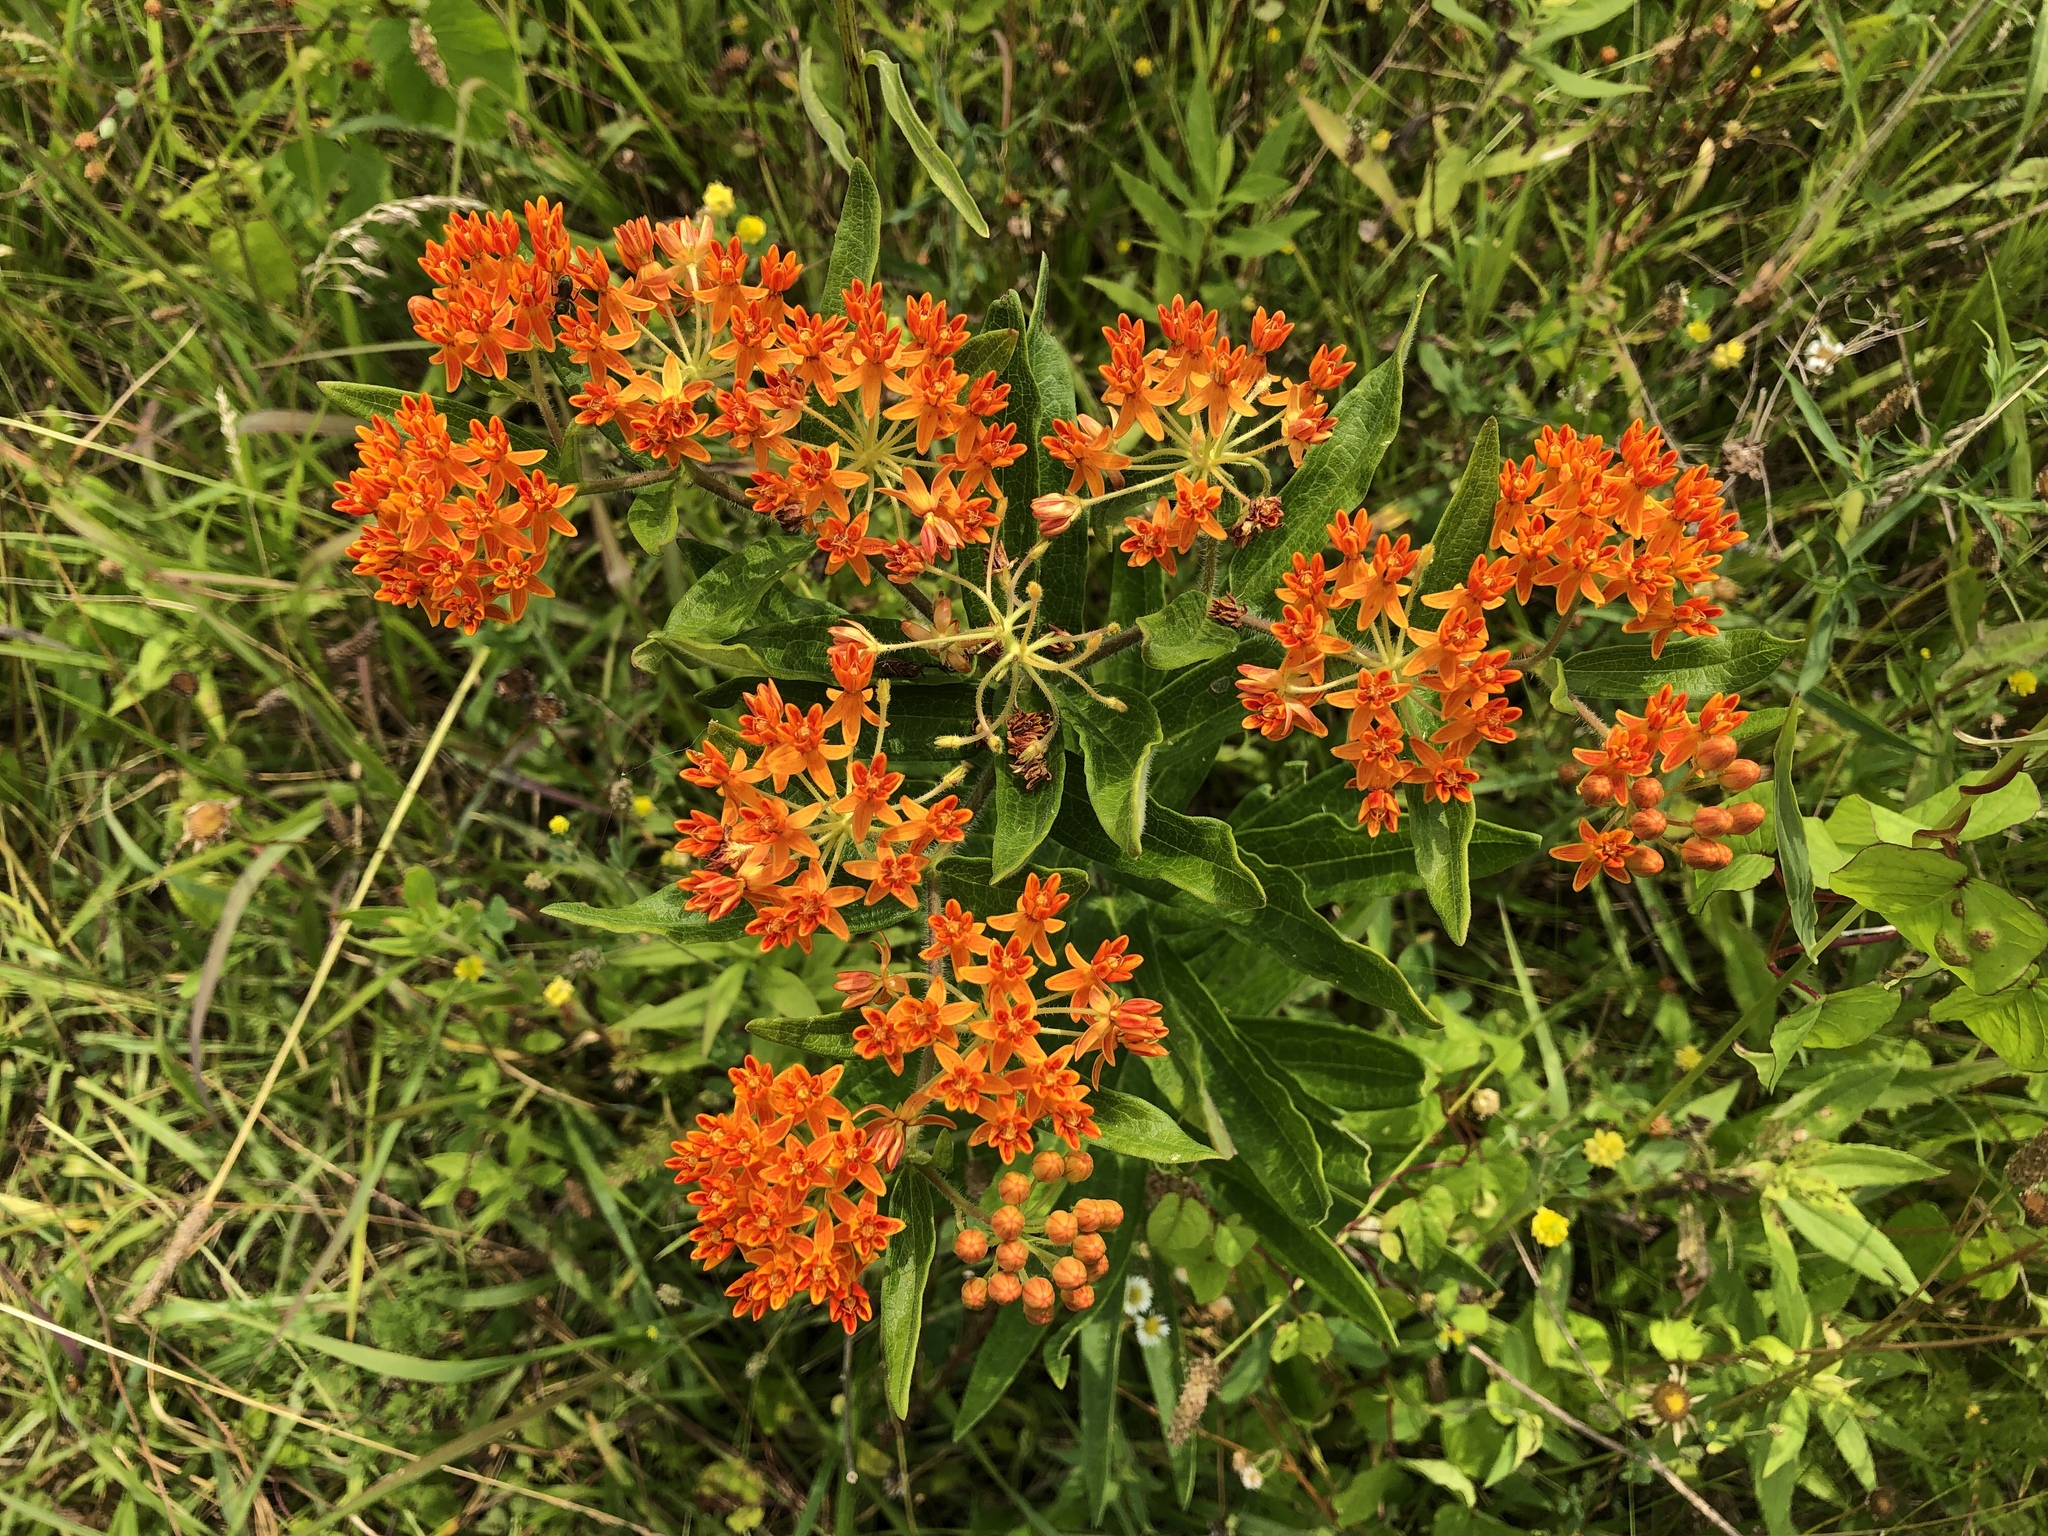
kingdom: Plantae
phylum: Tracheophyta
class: Magnoliopsida
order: Gentianales
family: Apocynaceae
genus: Asclepias
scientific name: Asclepias tuberosa
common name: Butterfly milkweed
